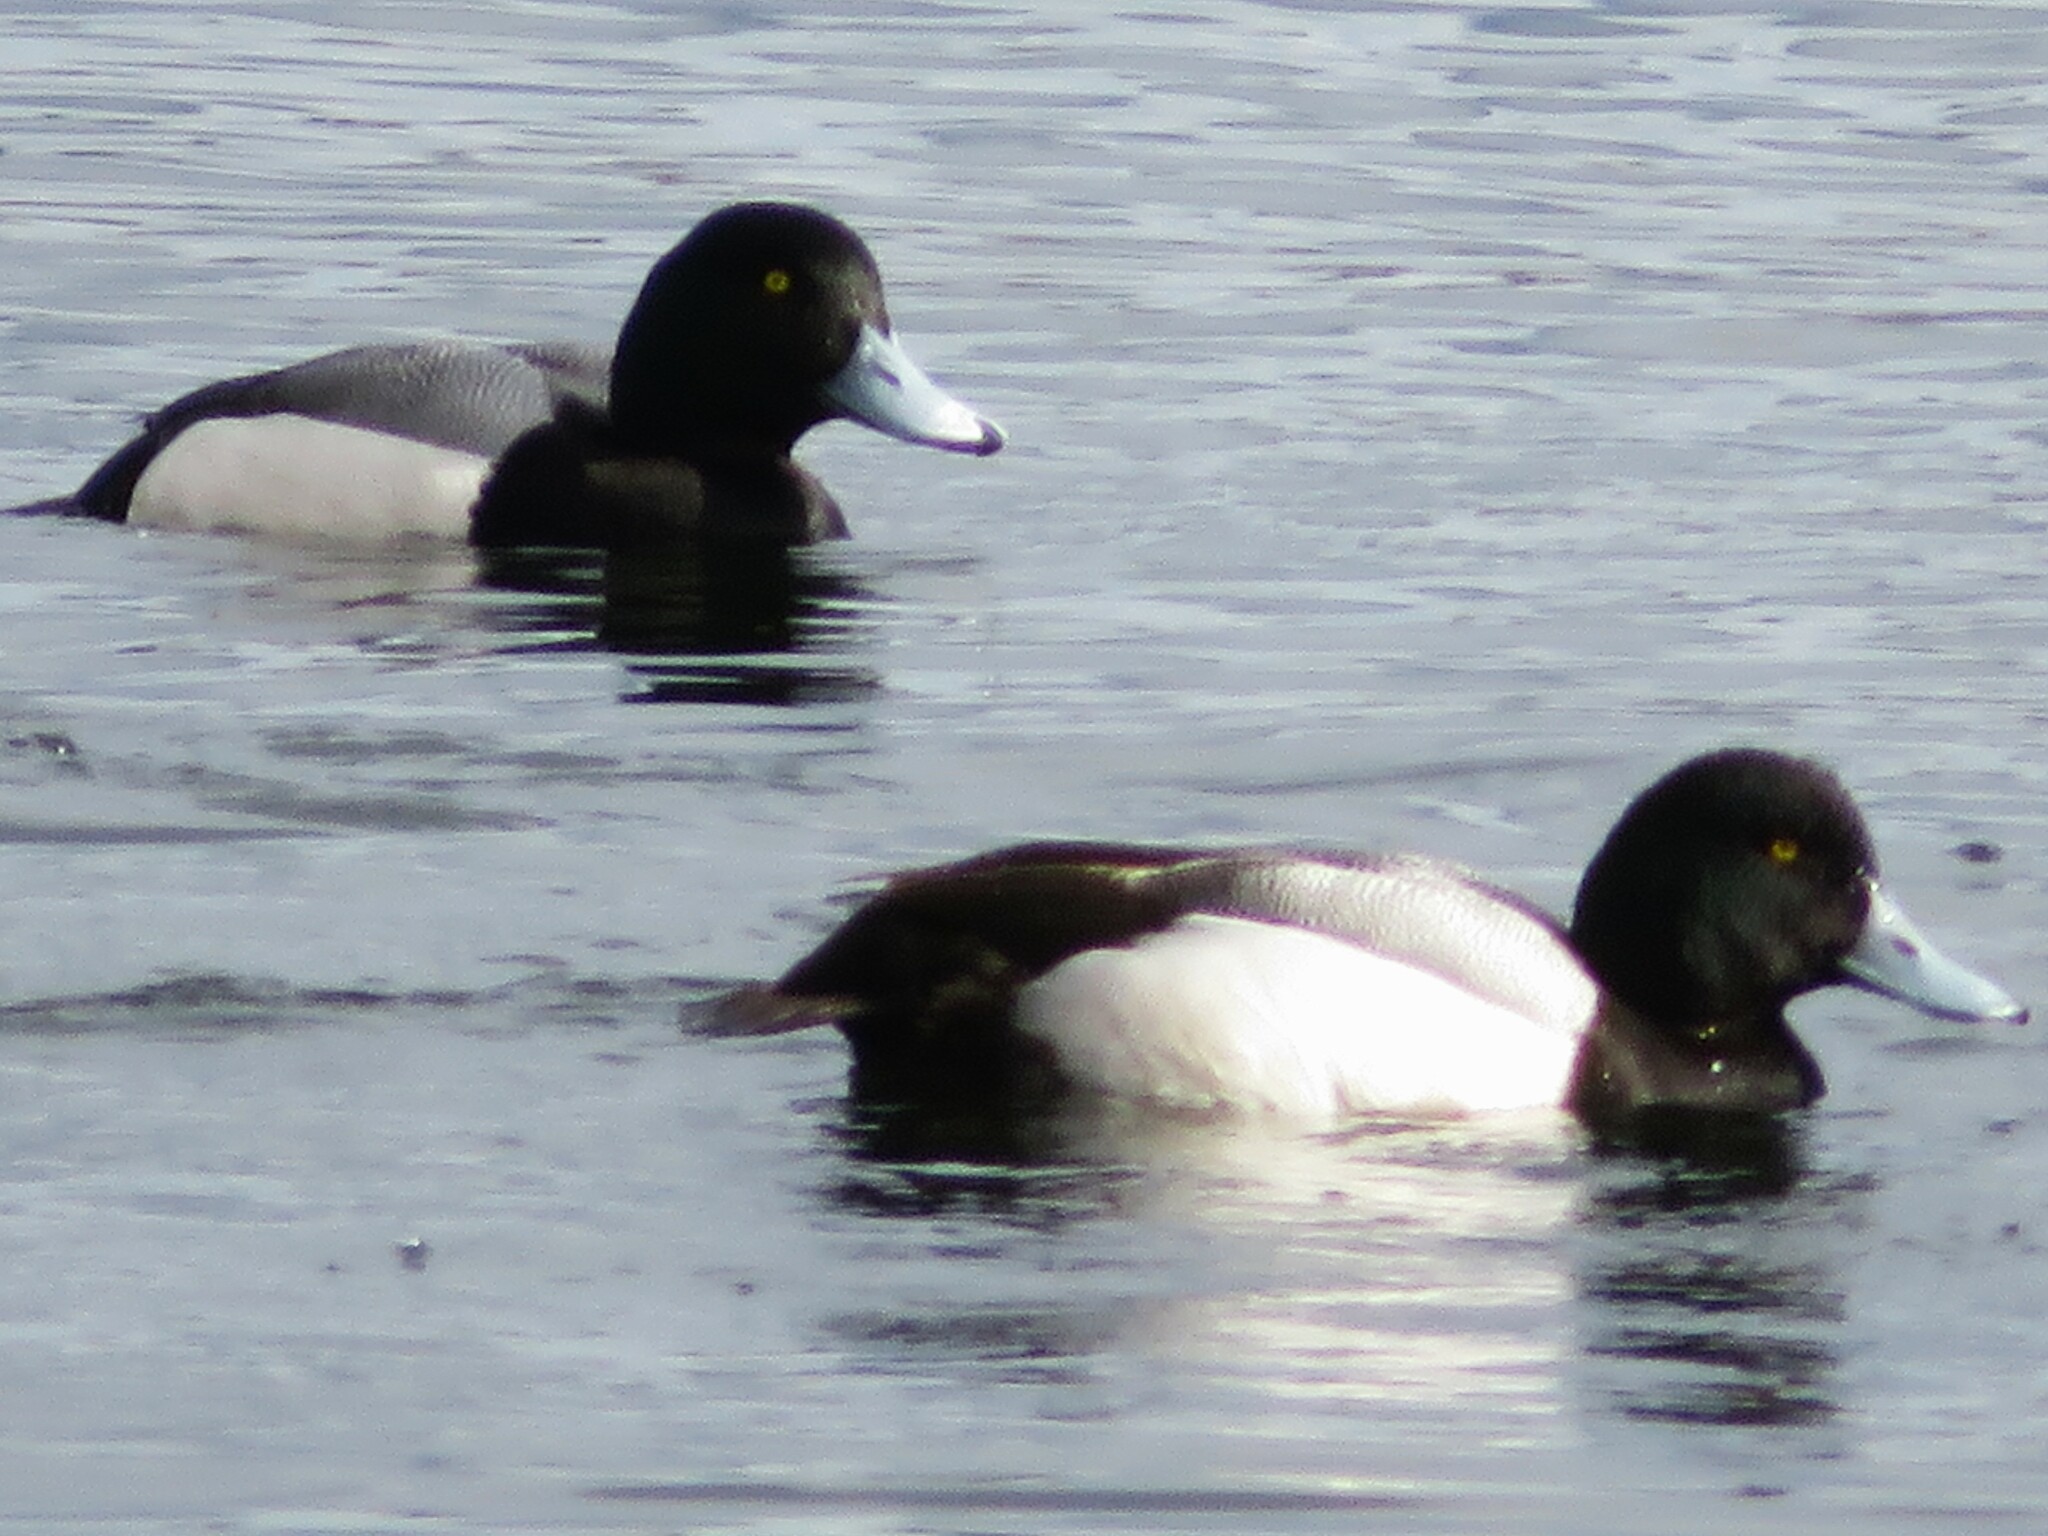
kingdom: Animalia
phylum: Chordata
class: Aves
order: Anseriformes
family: Anatidae
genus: Aythya
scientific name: Aythya marila
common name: Greater scaup
